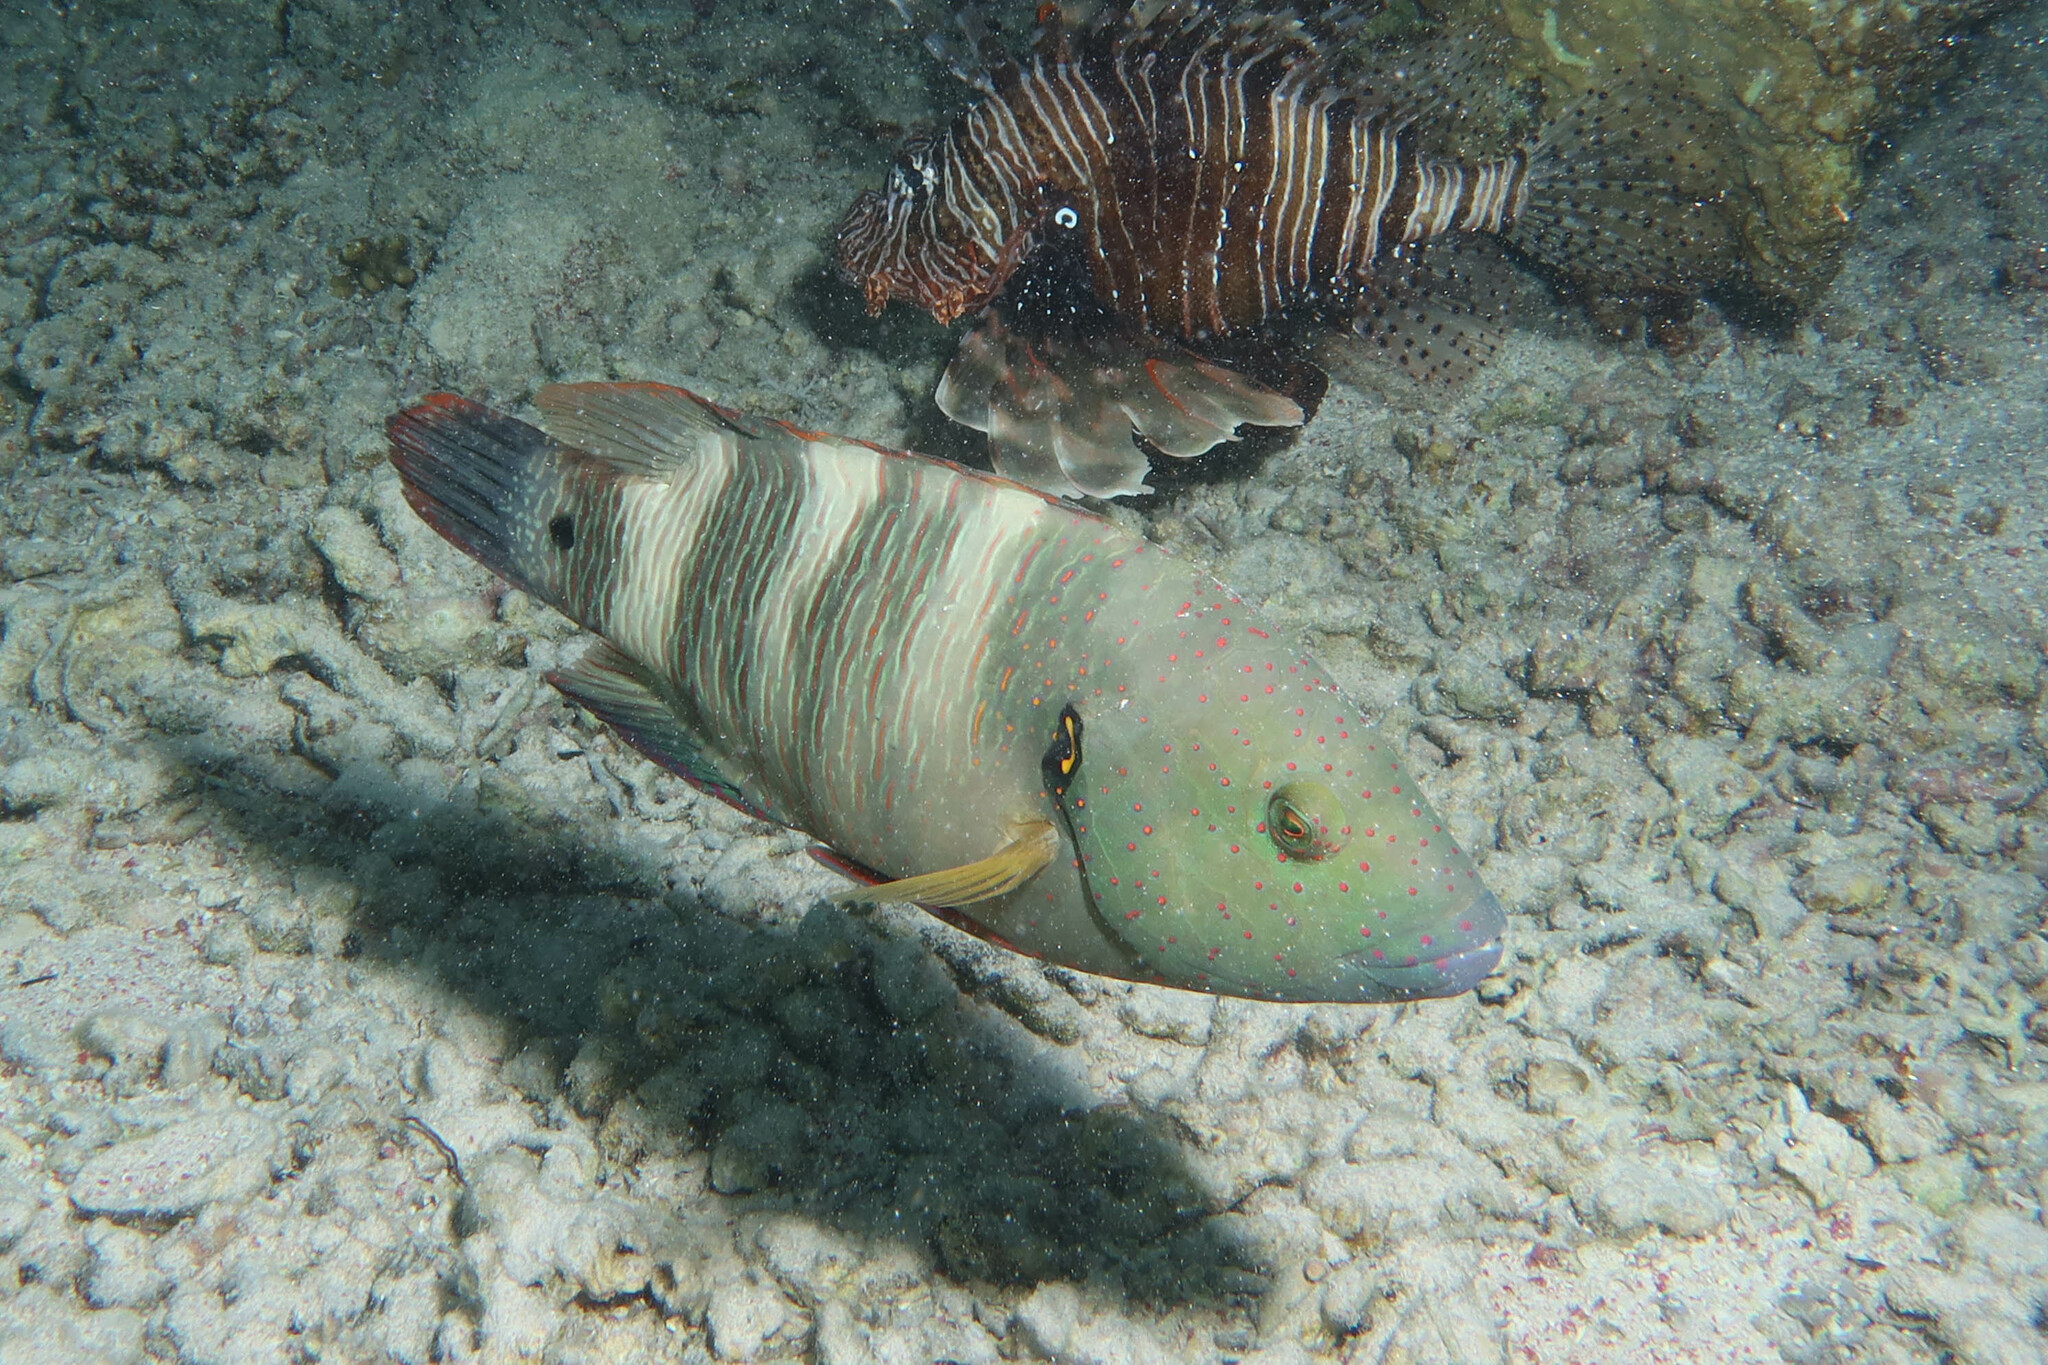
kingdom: Animalia
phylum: Chordata
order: Perciformes
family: Labridae
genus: Cheilinus
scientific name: Cheilinus lunulatus
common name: Broomtail wrasse
